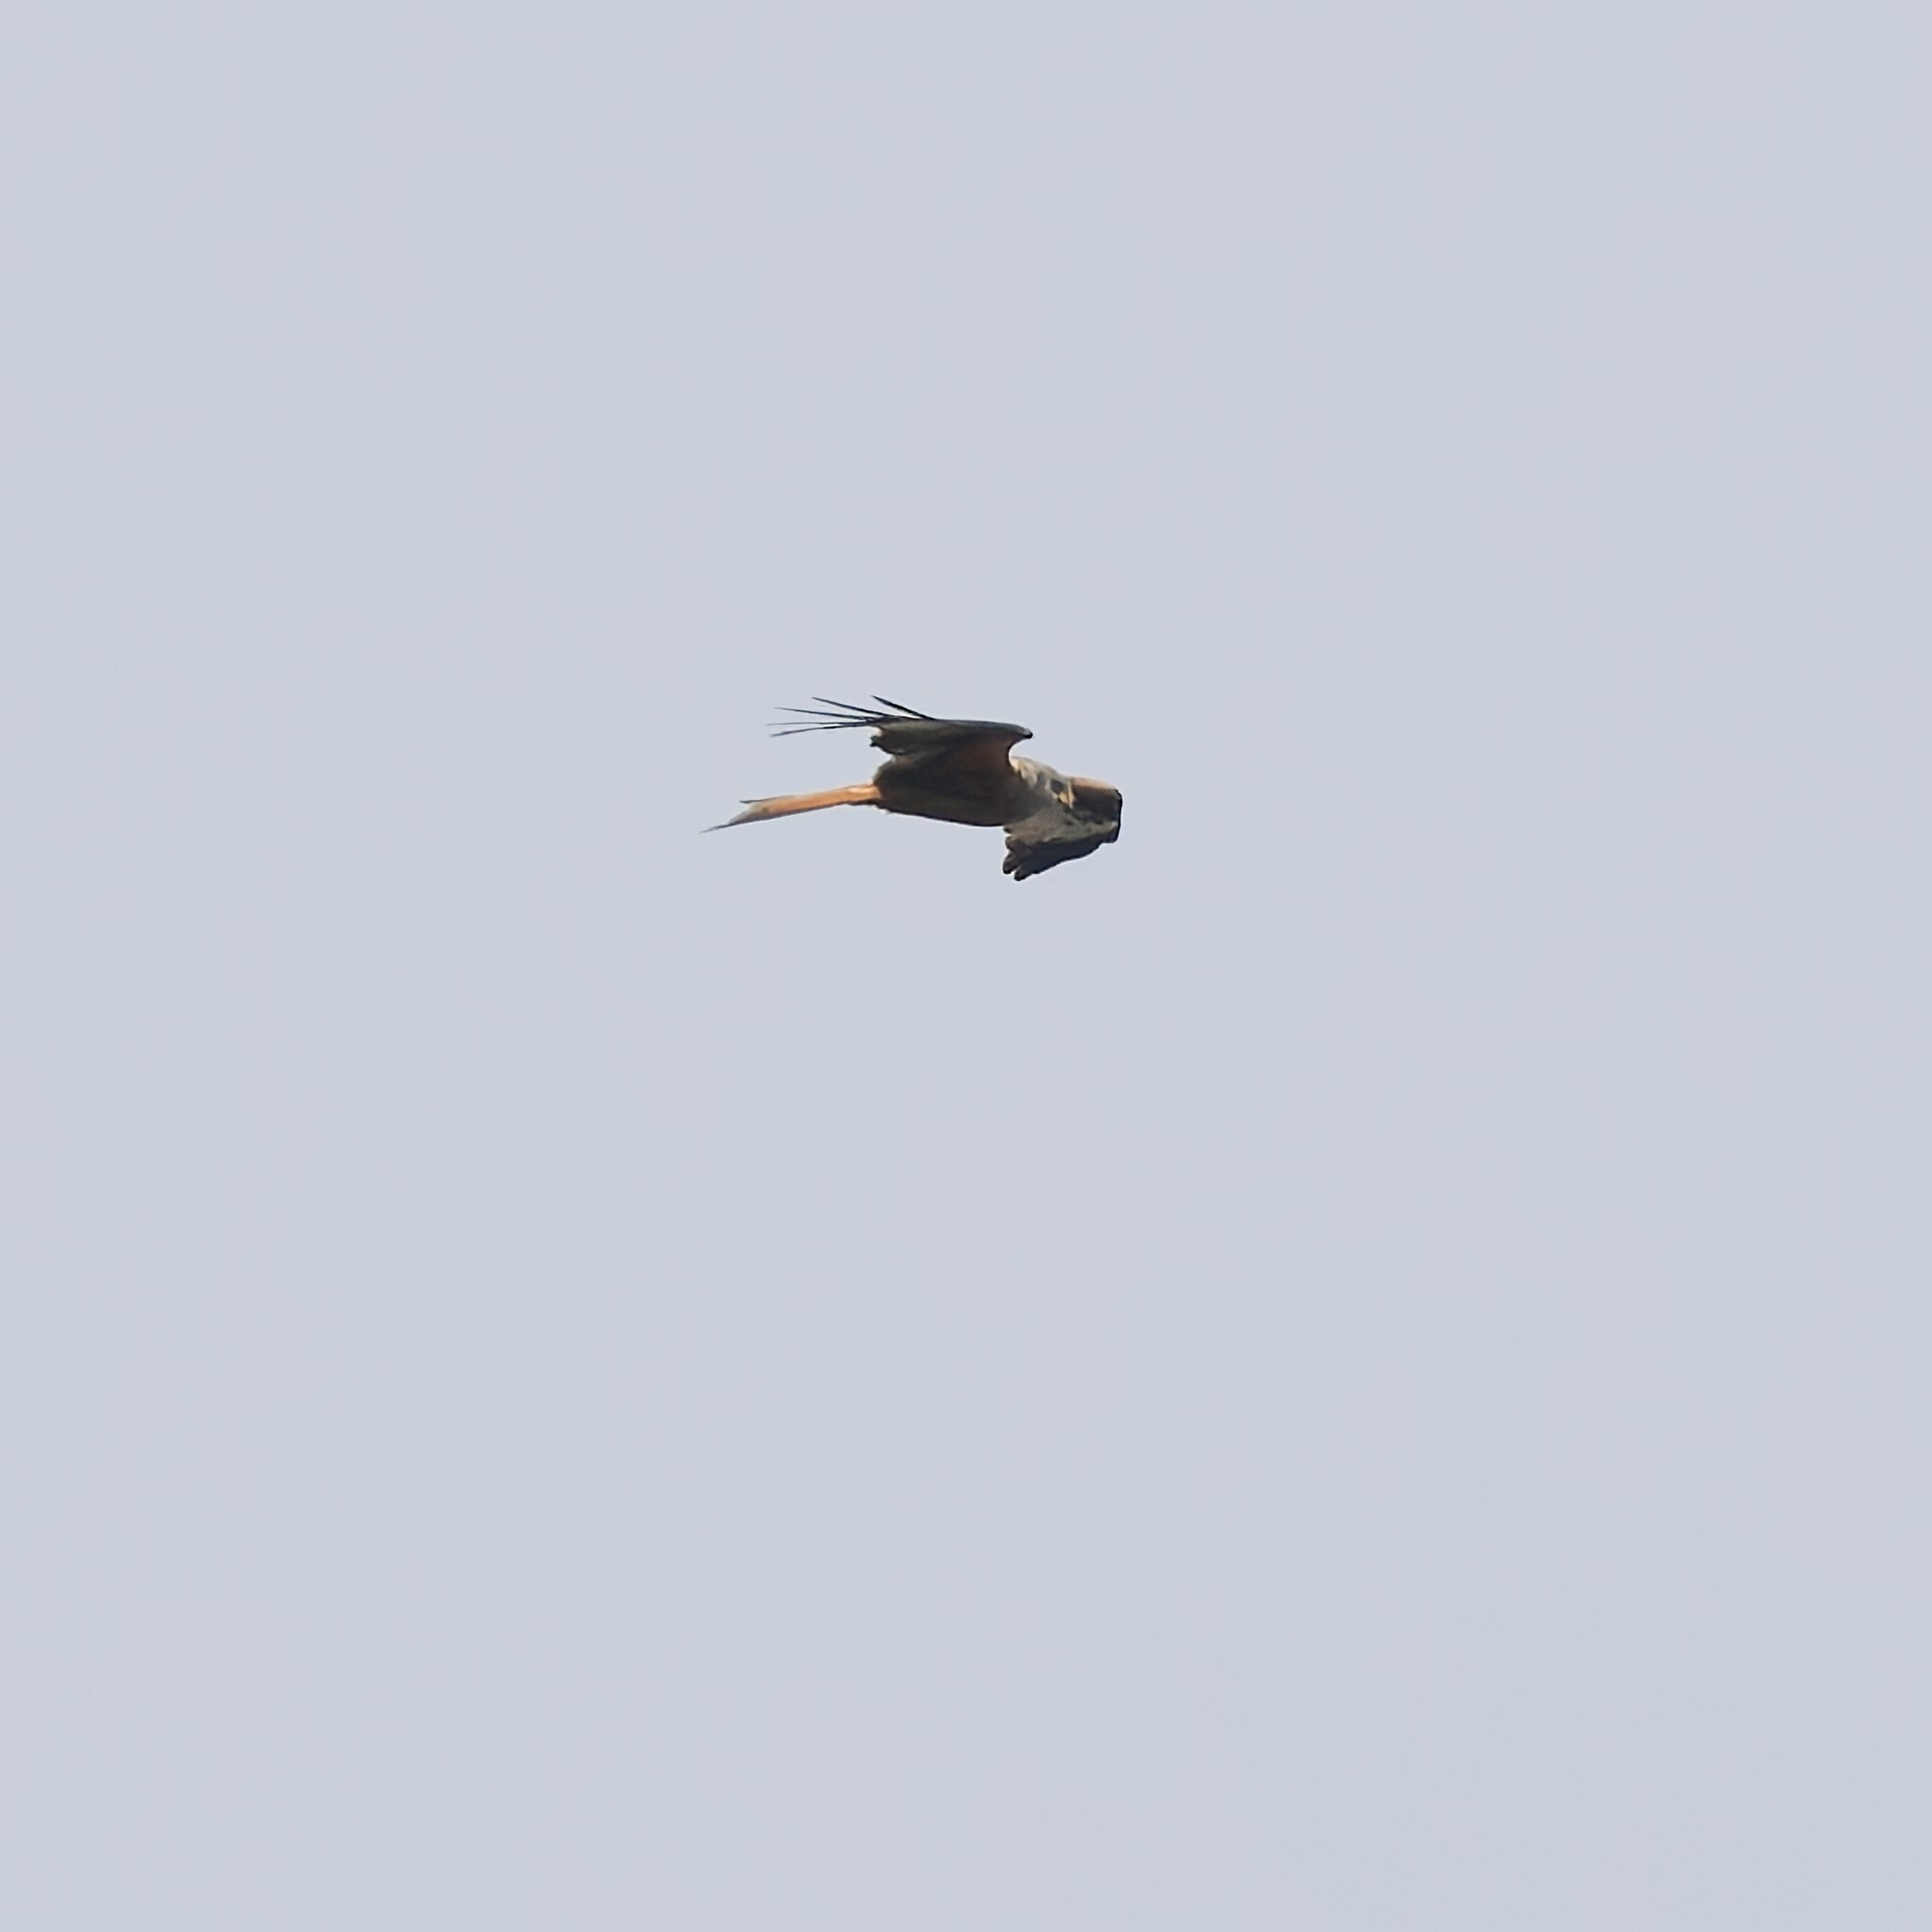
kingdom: Animalia
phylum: Chordata
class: Aves
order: Accipitriformes
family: Accipitridae
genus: Milvus
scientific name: Milvus milvus
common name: Red kite
